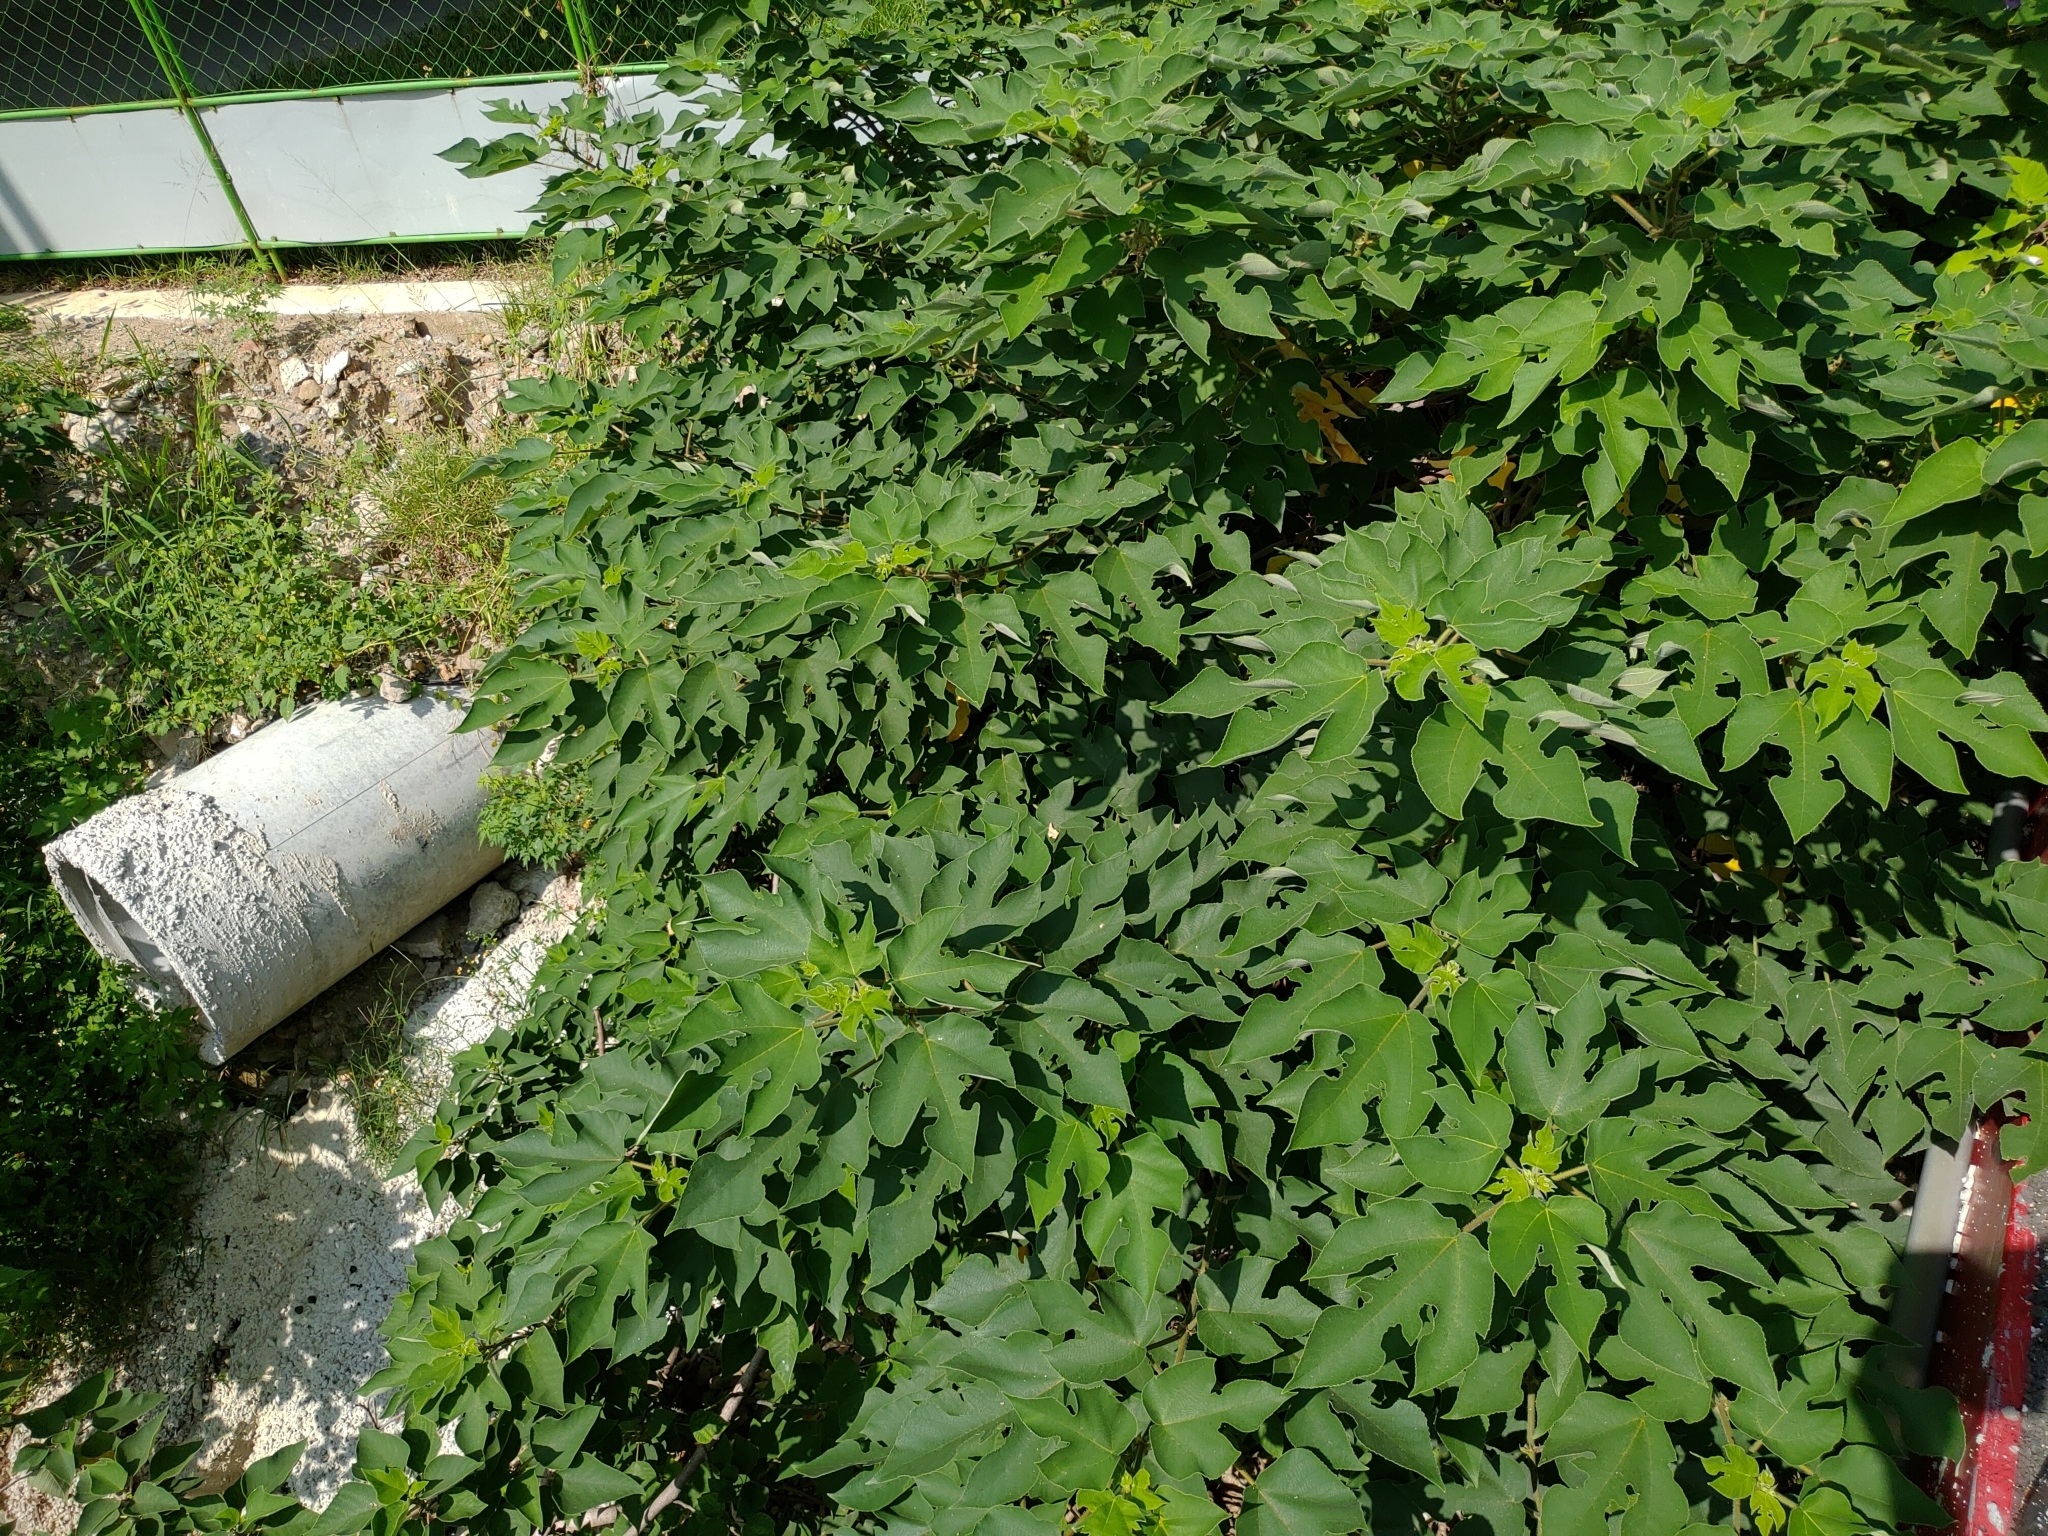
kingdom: Plantae
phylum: Tracheophyta
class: Magnoliopsida
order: Rosales
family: Moraceae
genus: Broussonetia
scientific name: Broussonetia papyrifera
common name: Paper mulberry
